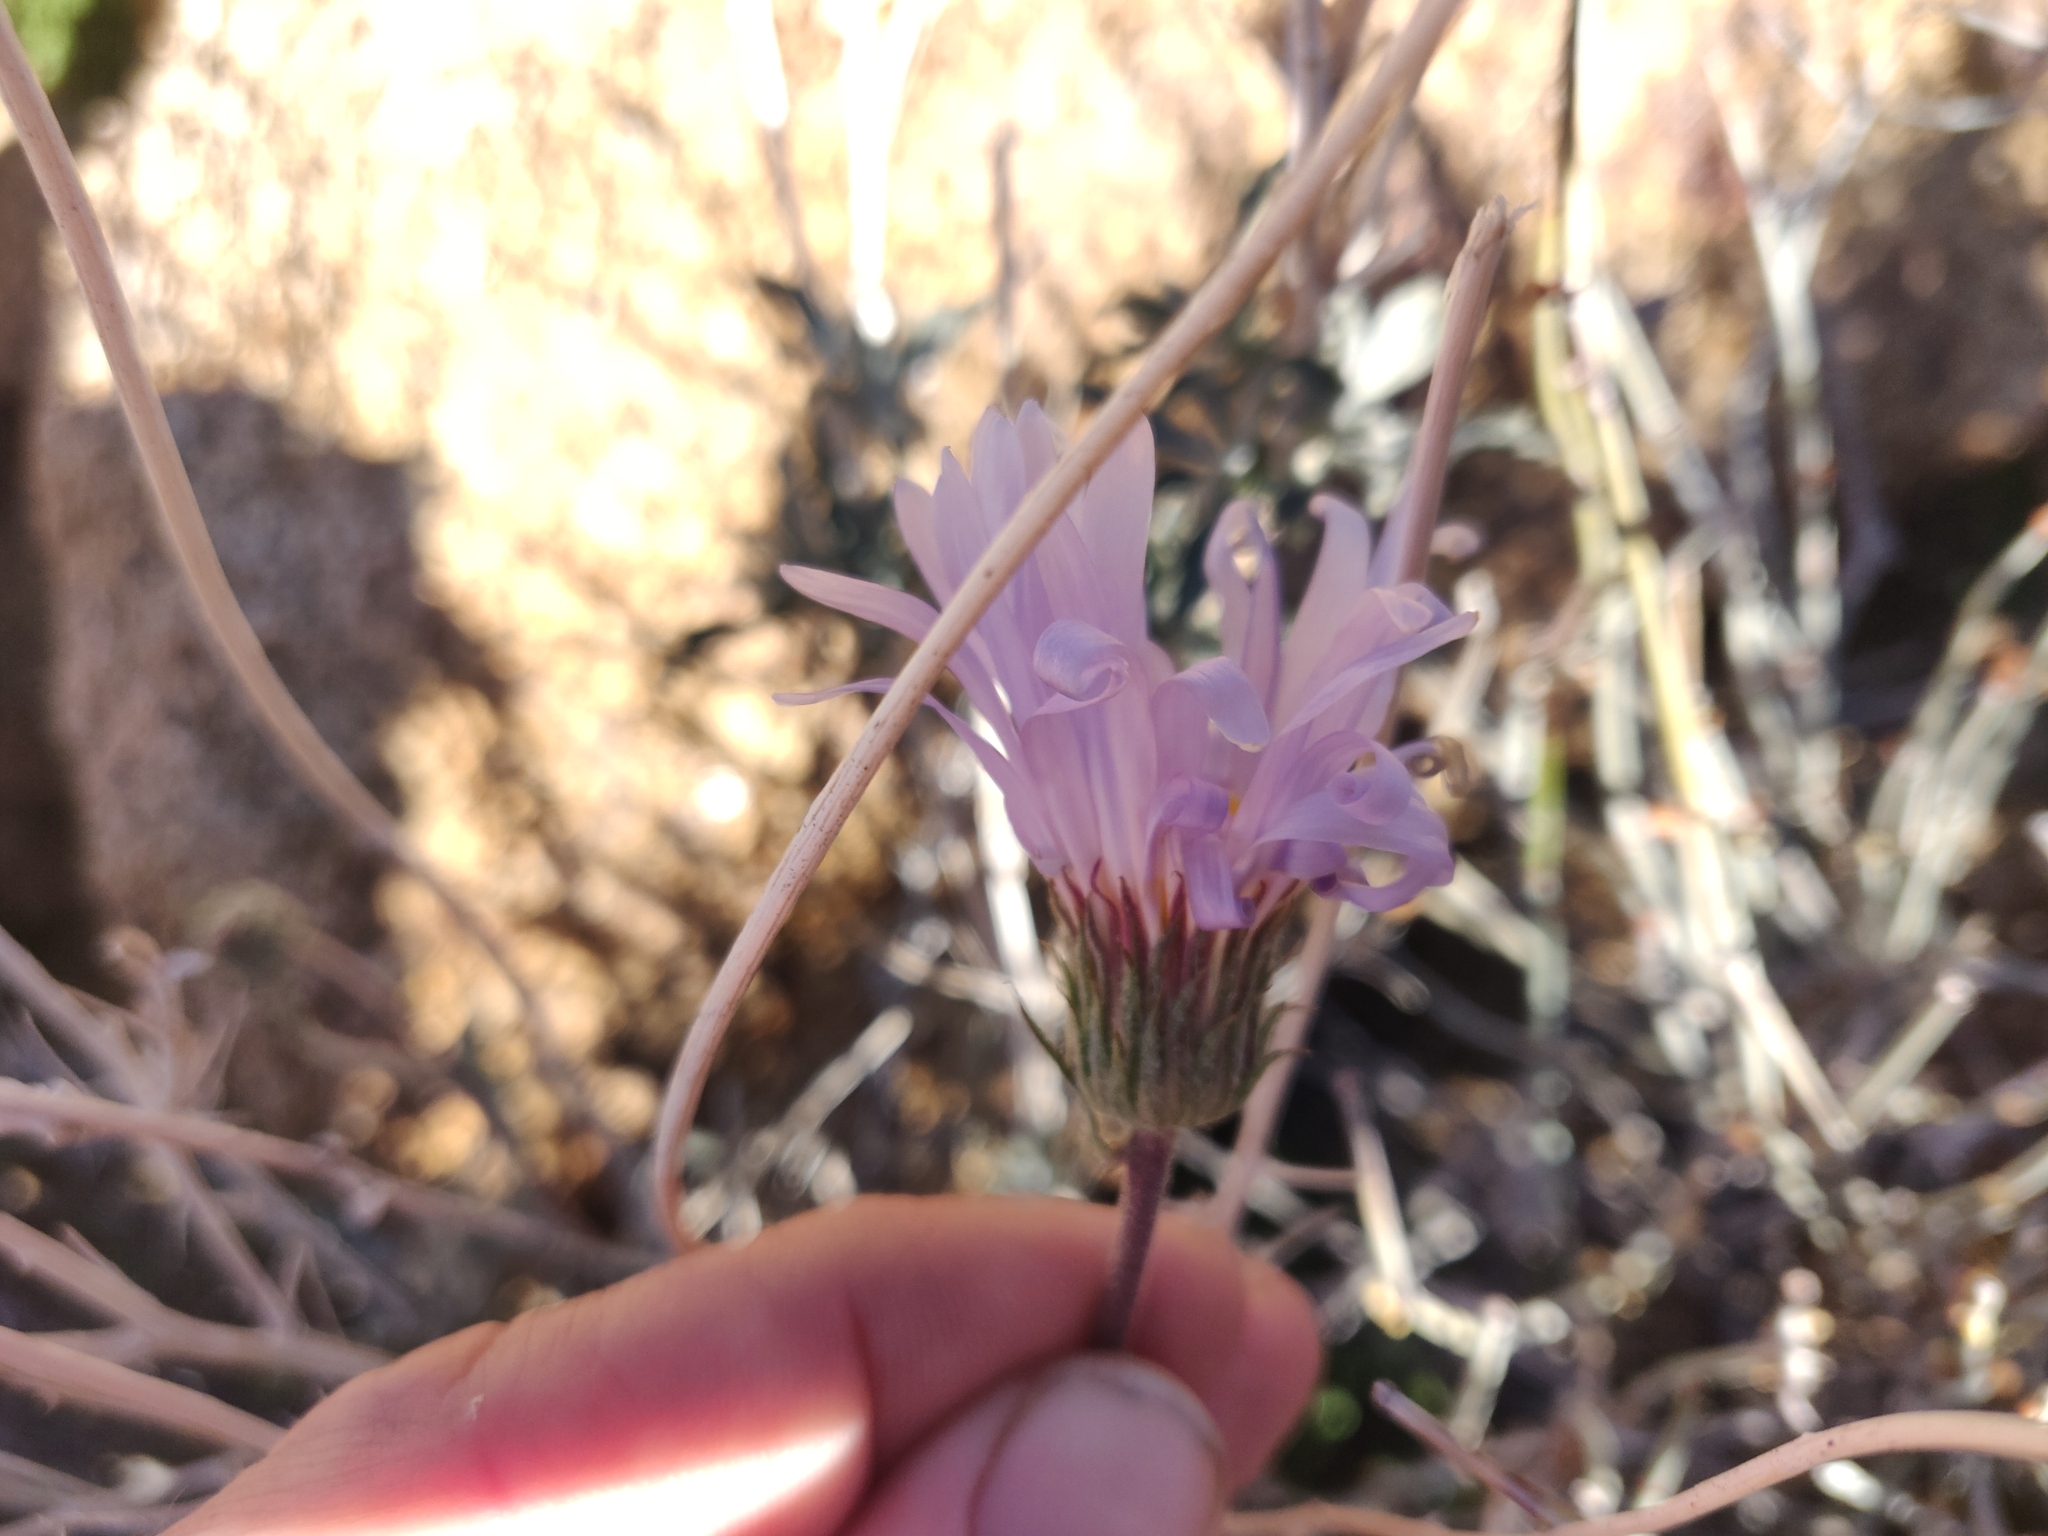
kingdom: Plantae
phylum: Tracheophyta
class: Magnoliopsida
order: Asterales
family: Asteraceae
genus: Xylorhiza
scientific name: Xylorhiza tortifolia
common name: Hurt-leaf woody-aster
